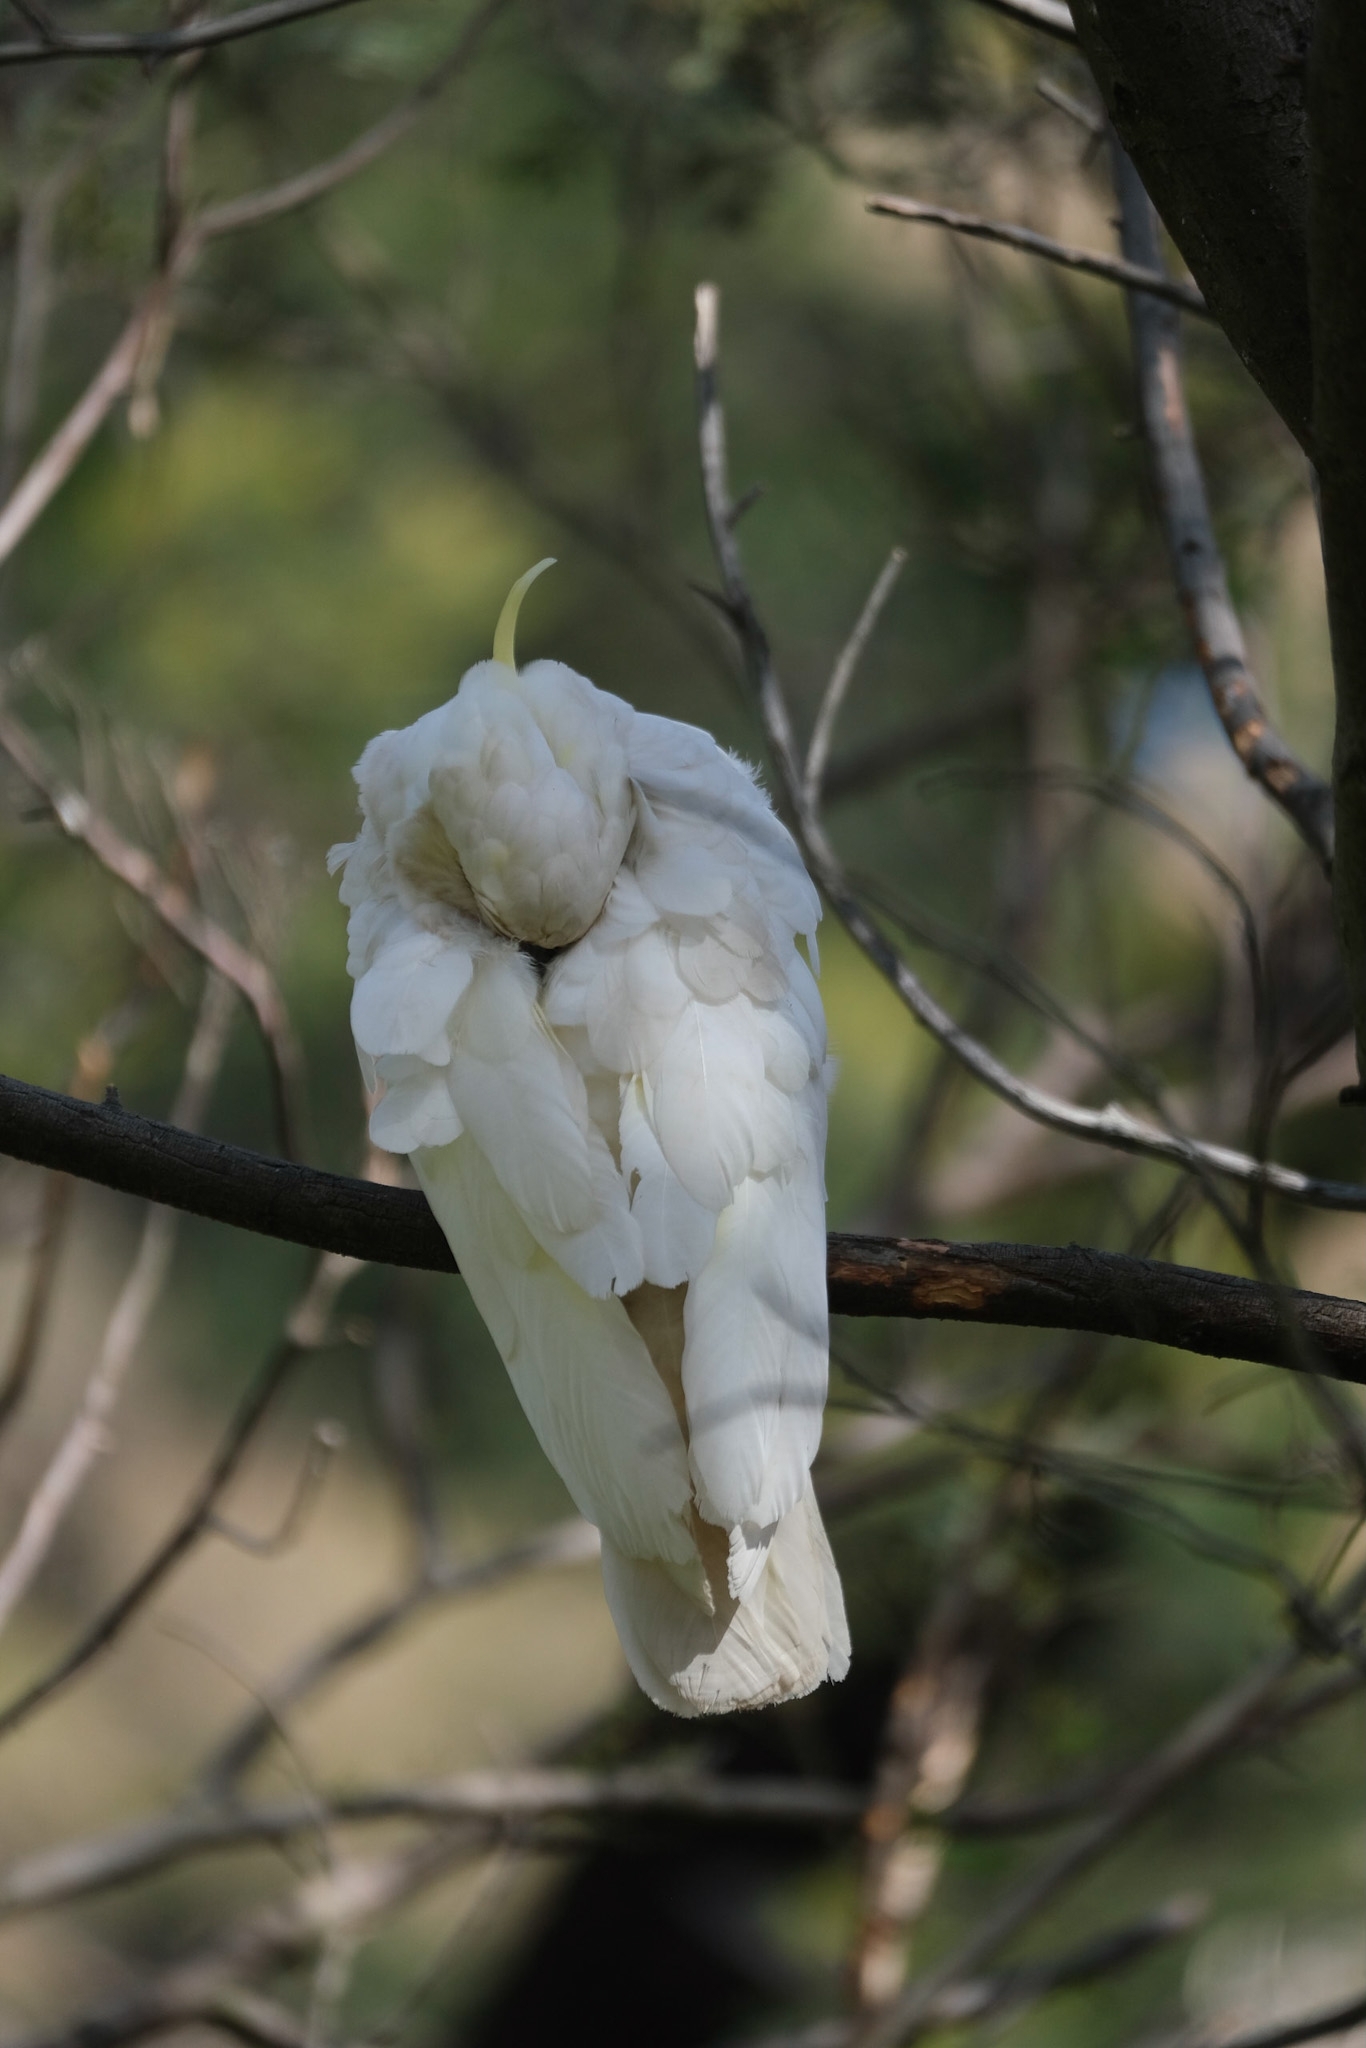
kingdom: Animalia
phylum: Chordata
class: Aves
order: Psittaciformes
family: Psittacidae
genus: Cacatua
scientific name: Cacatua galerita
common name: Sulphur-crested cockatoo
